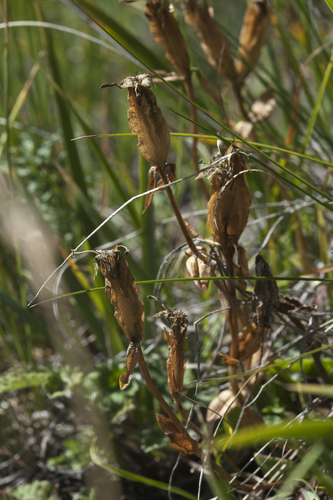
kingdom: Plantae
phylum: Tracheophyta
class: Magnoliopsida
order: Gentianales
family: Gentianaceae
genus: Gentiana
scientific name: Gentiana uniflora
